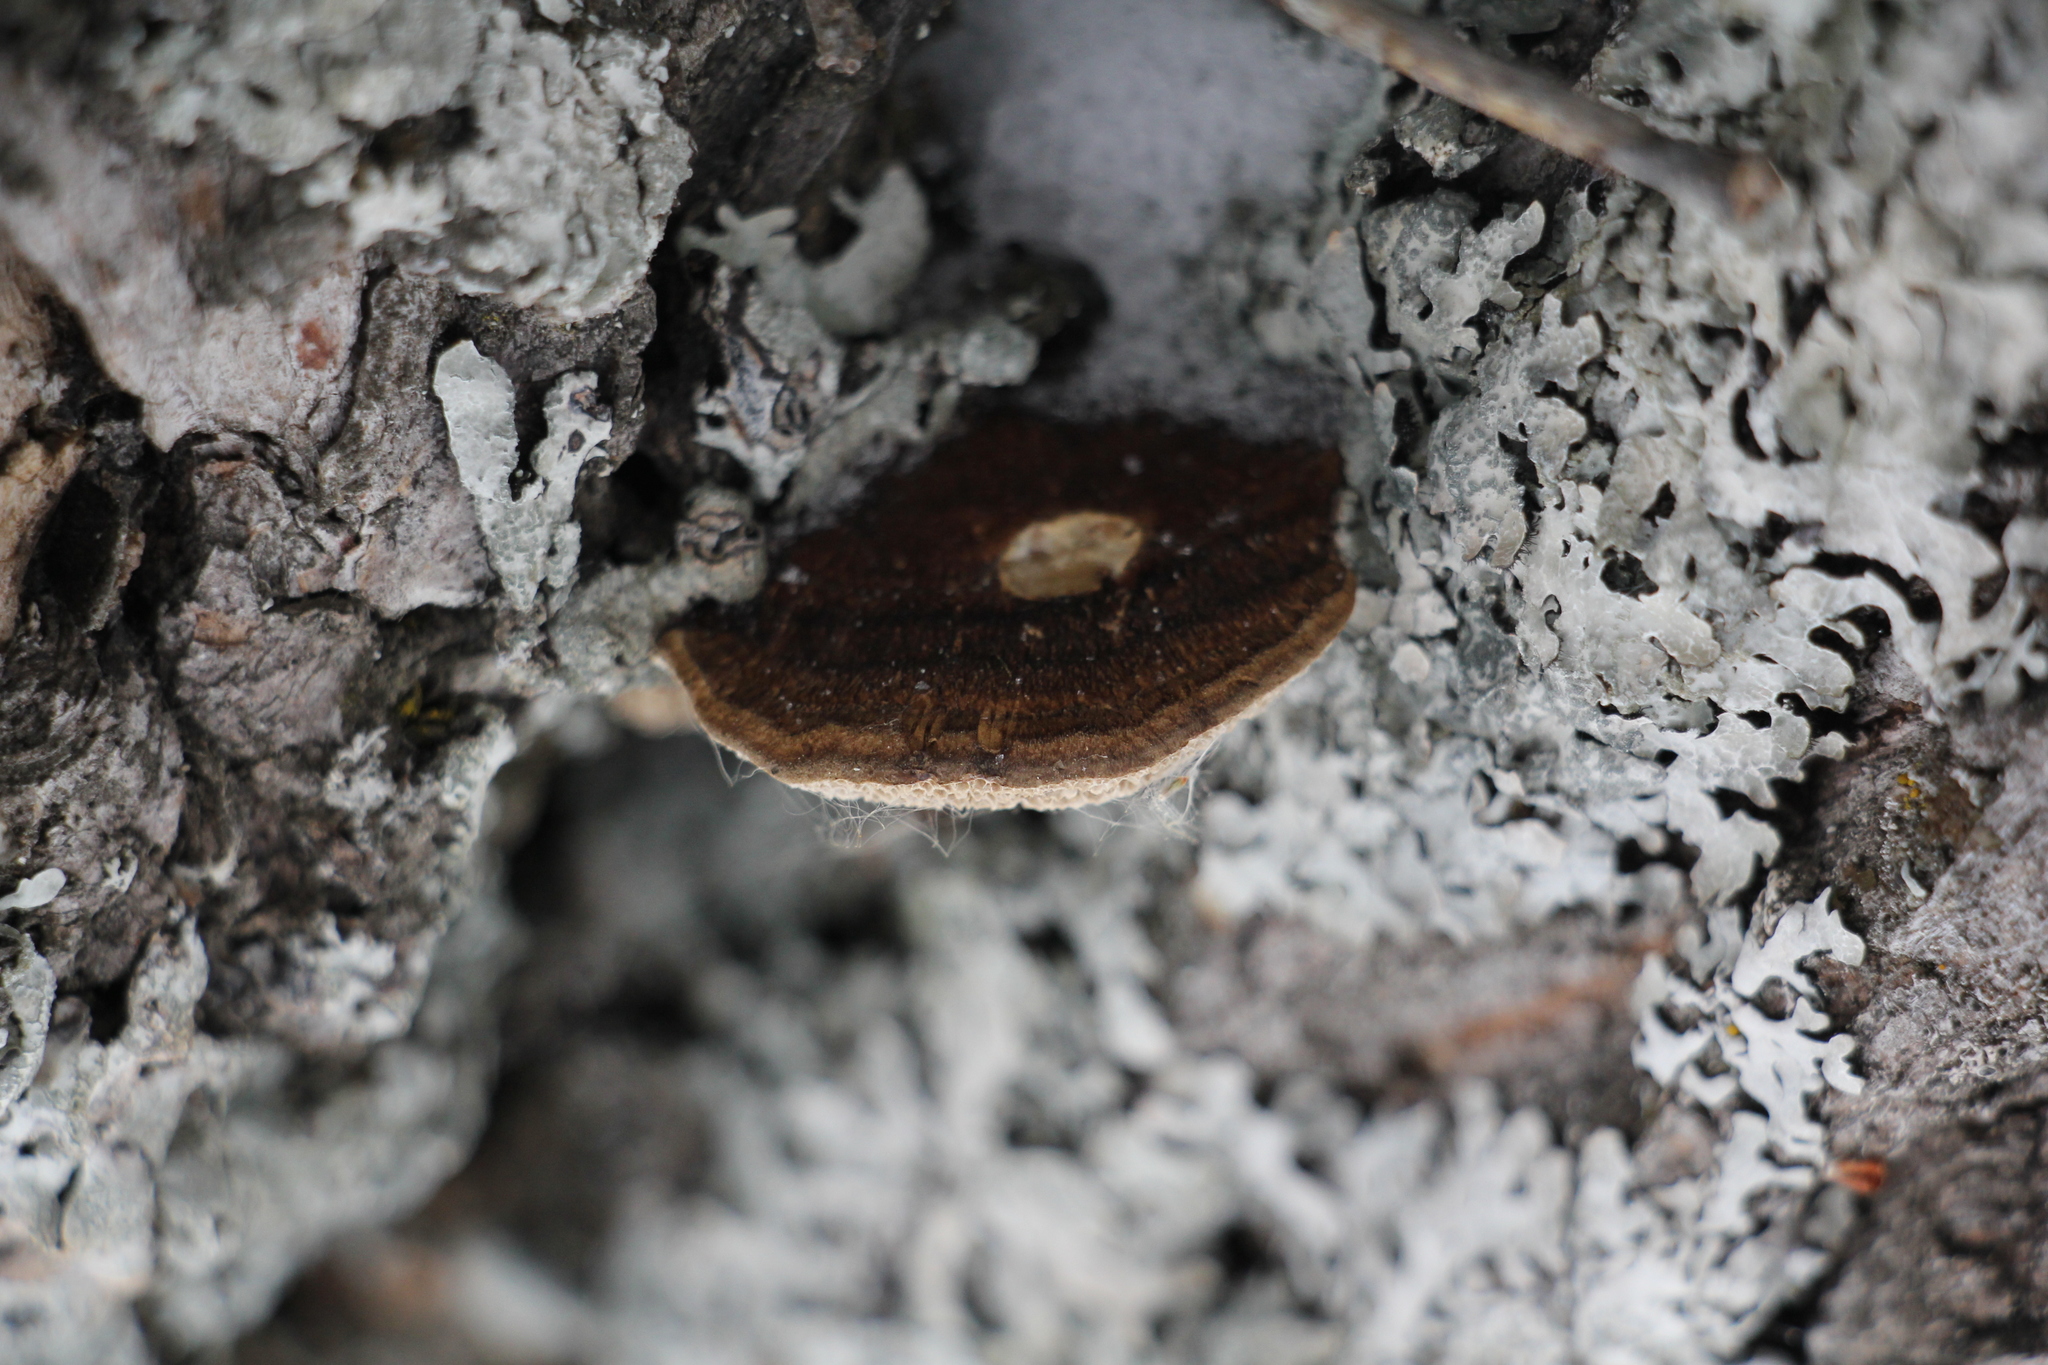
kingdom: Fungi
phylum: Basidiomycota
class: Agaricomycetes
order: Polyporales
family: Polyporaceae
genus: Daedaleopsis
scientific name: Daedaleopsis confragosa
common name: Blushing bracket
